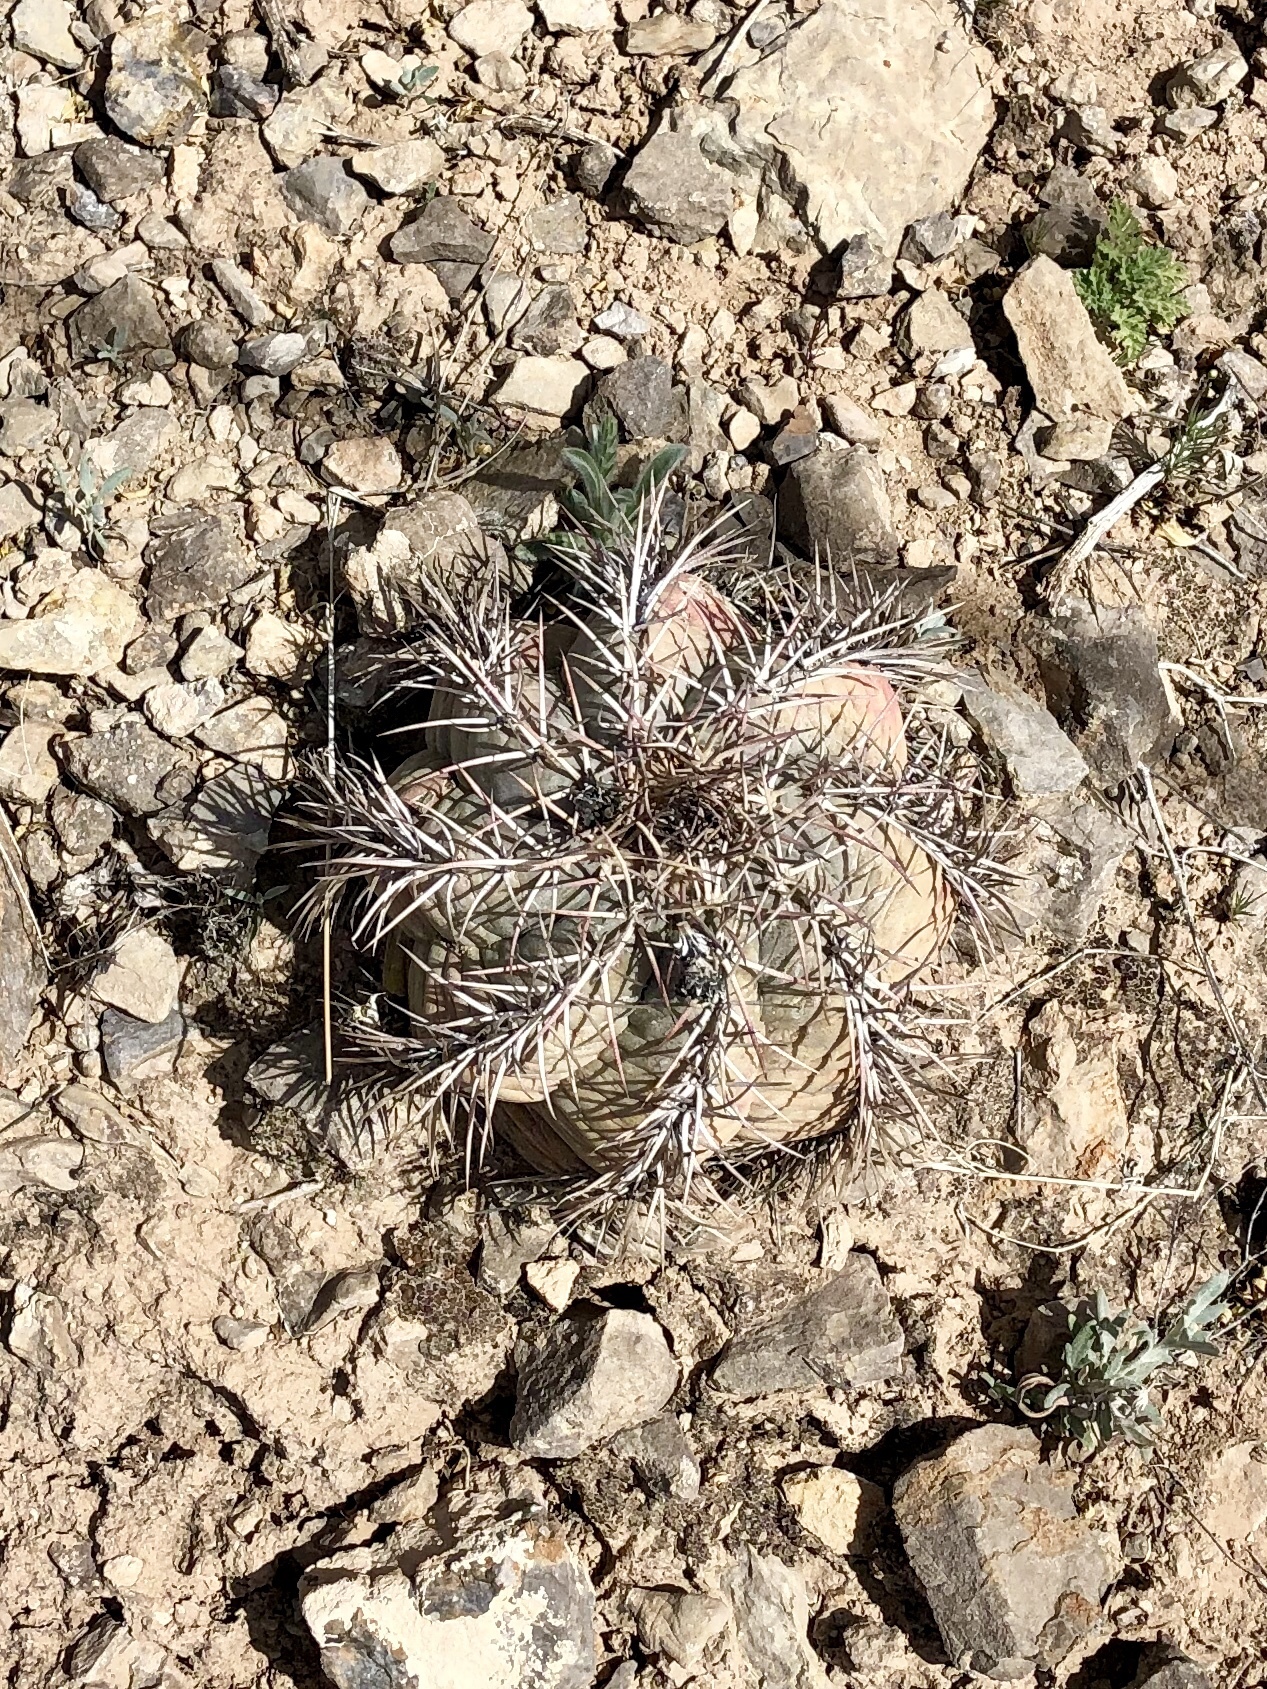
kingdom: Plantae
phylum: Tracheophyta
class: Magnoliopsida
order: Caryophyllales
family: Cactaceae
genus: Echinocactus
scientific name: Echinocactus horizonthalonius
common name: Devilshead
